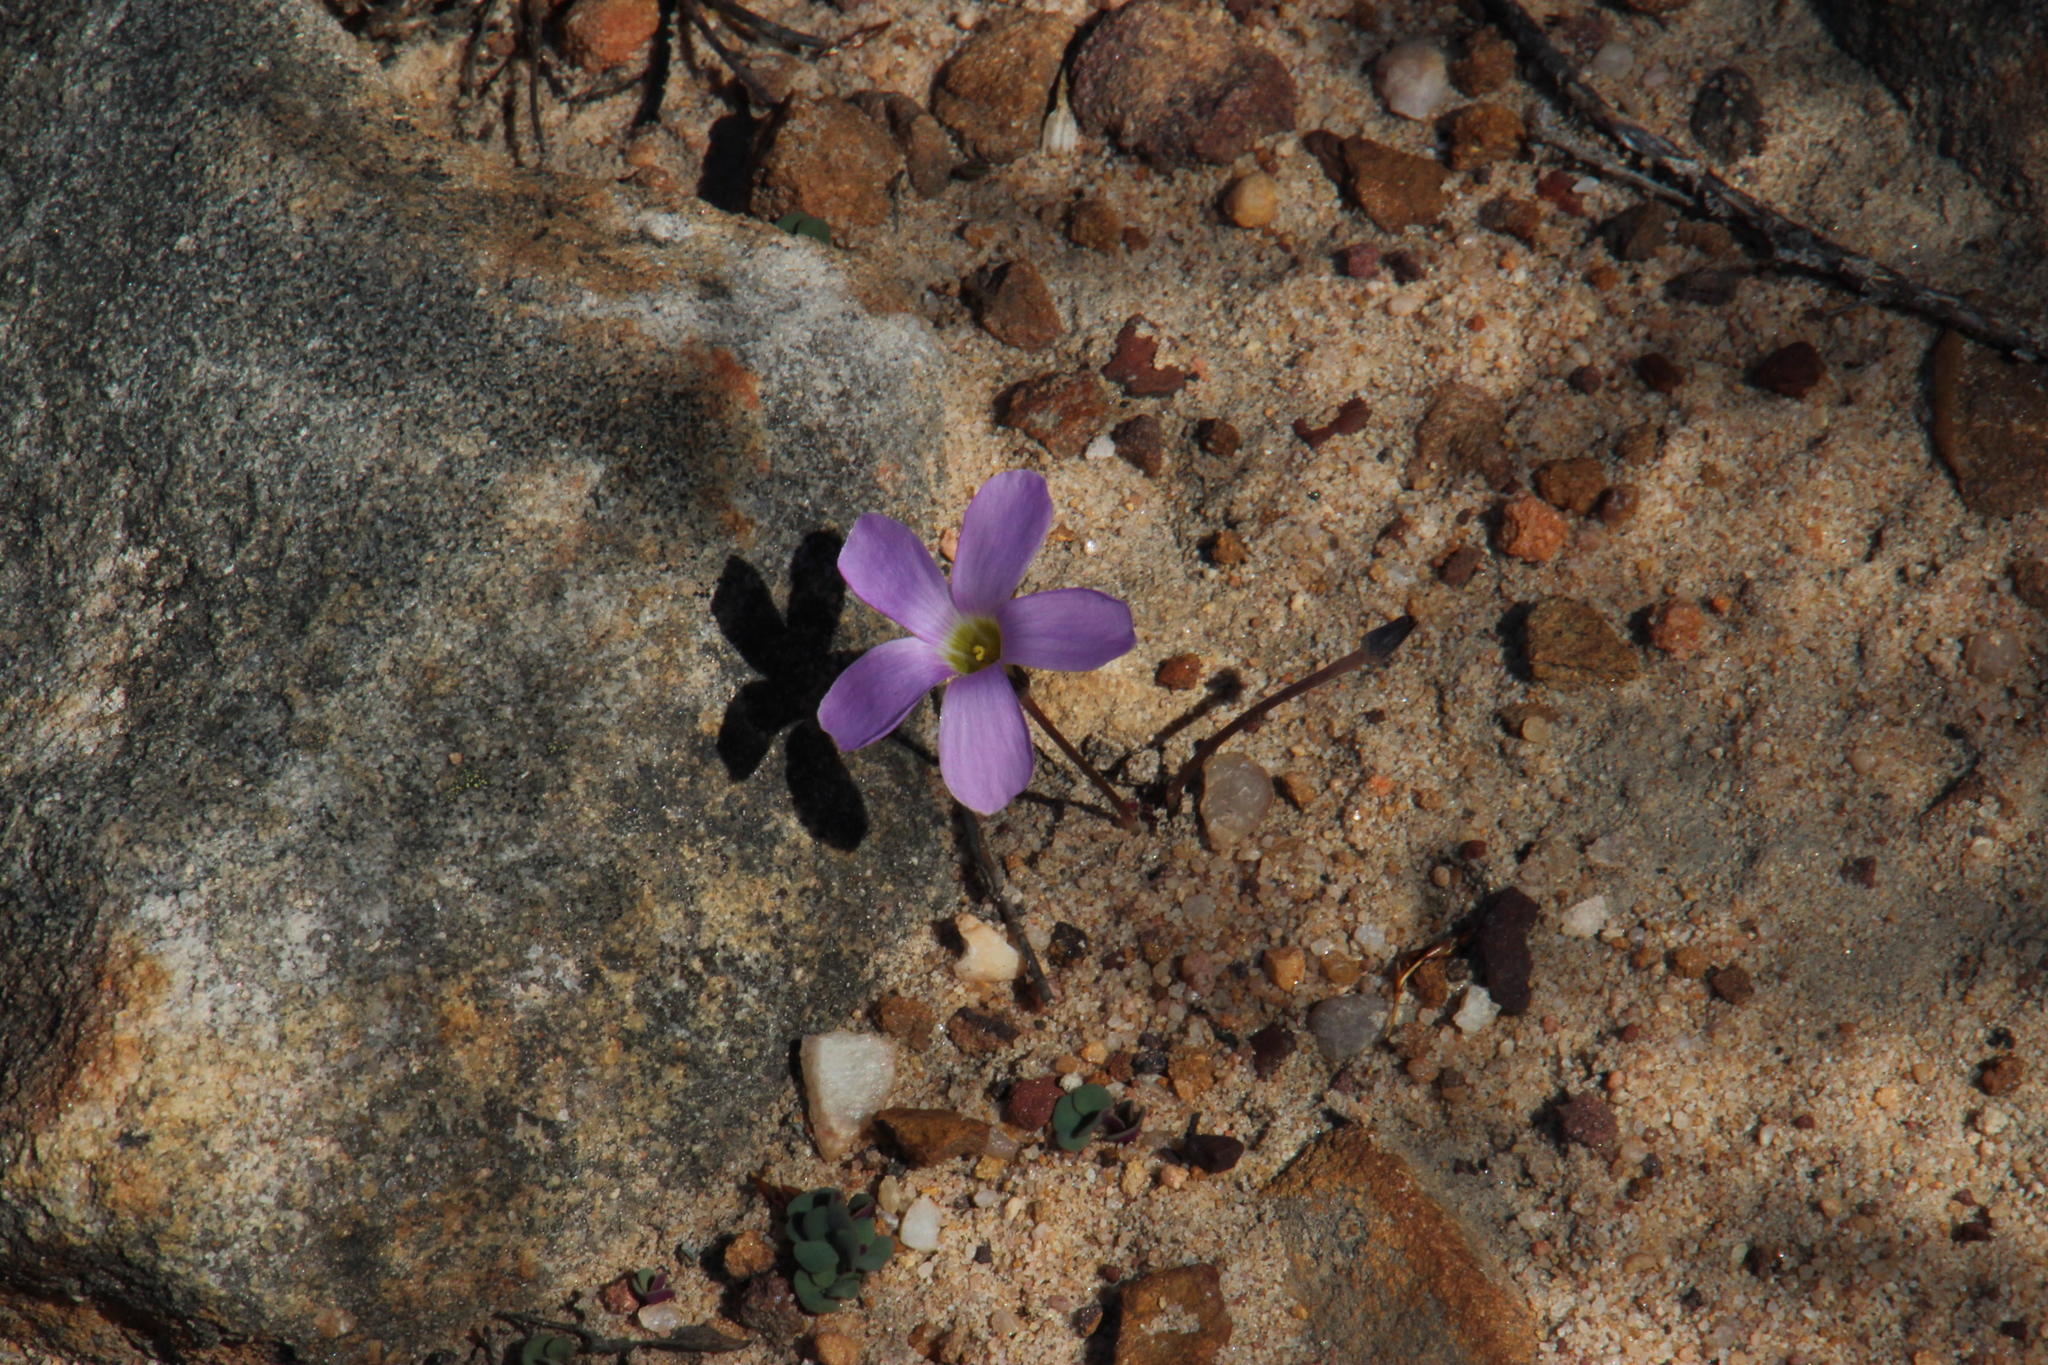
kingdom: Plantae
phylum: Tracheophyta
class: Magnoliopsida
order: Oxalidales
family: Oxalidaceae
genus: Oxalis
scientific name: Oxalis pocockiae
